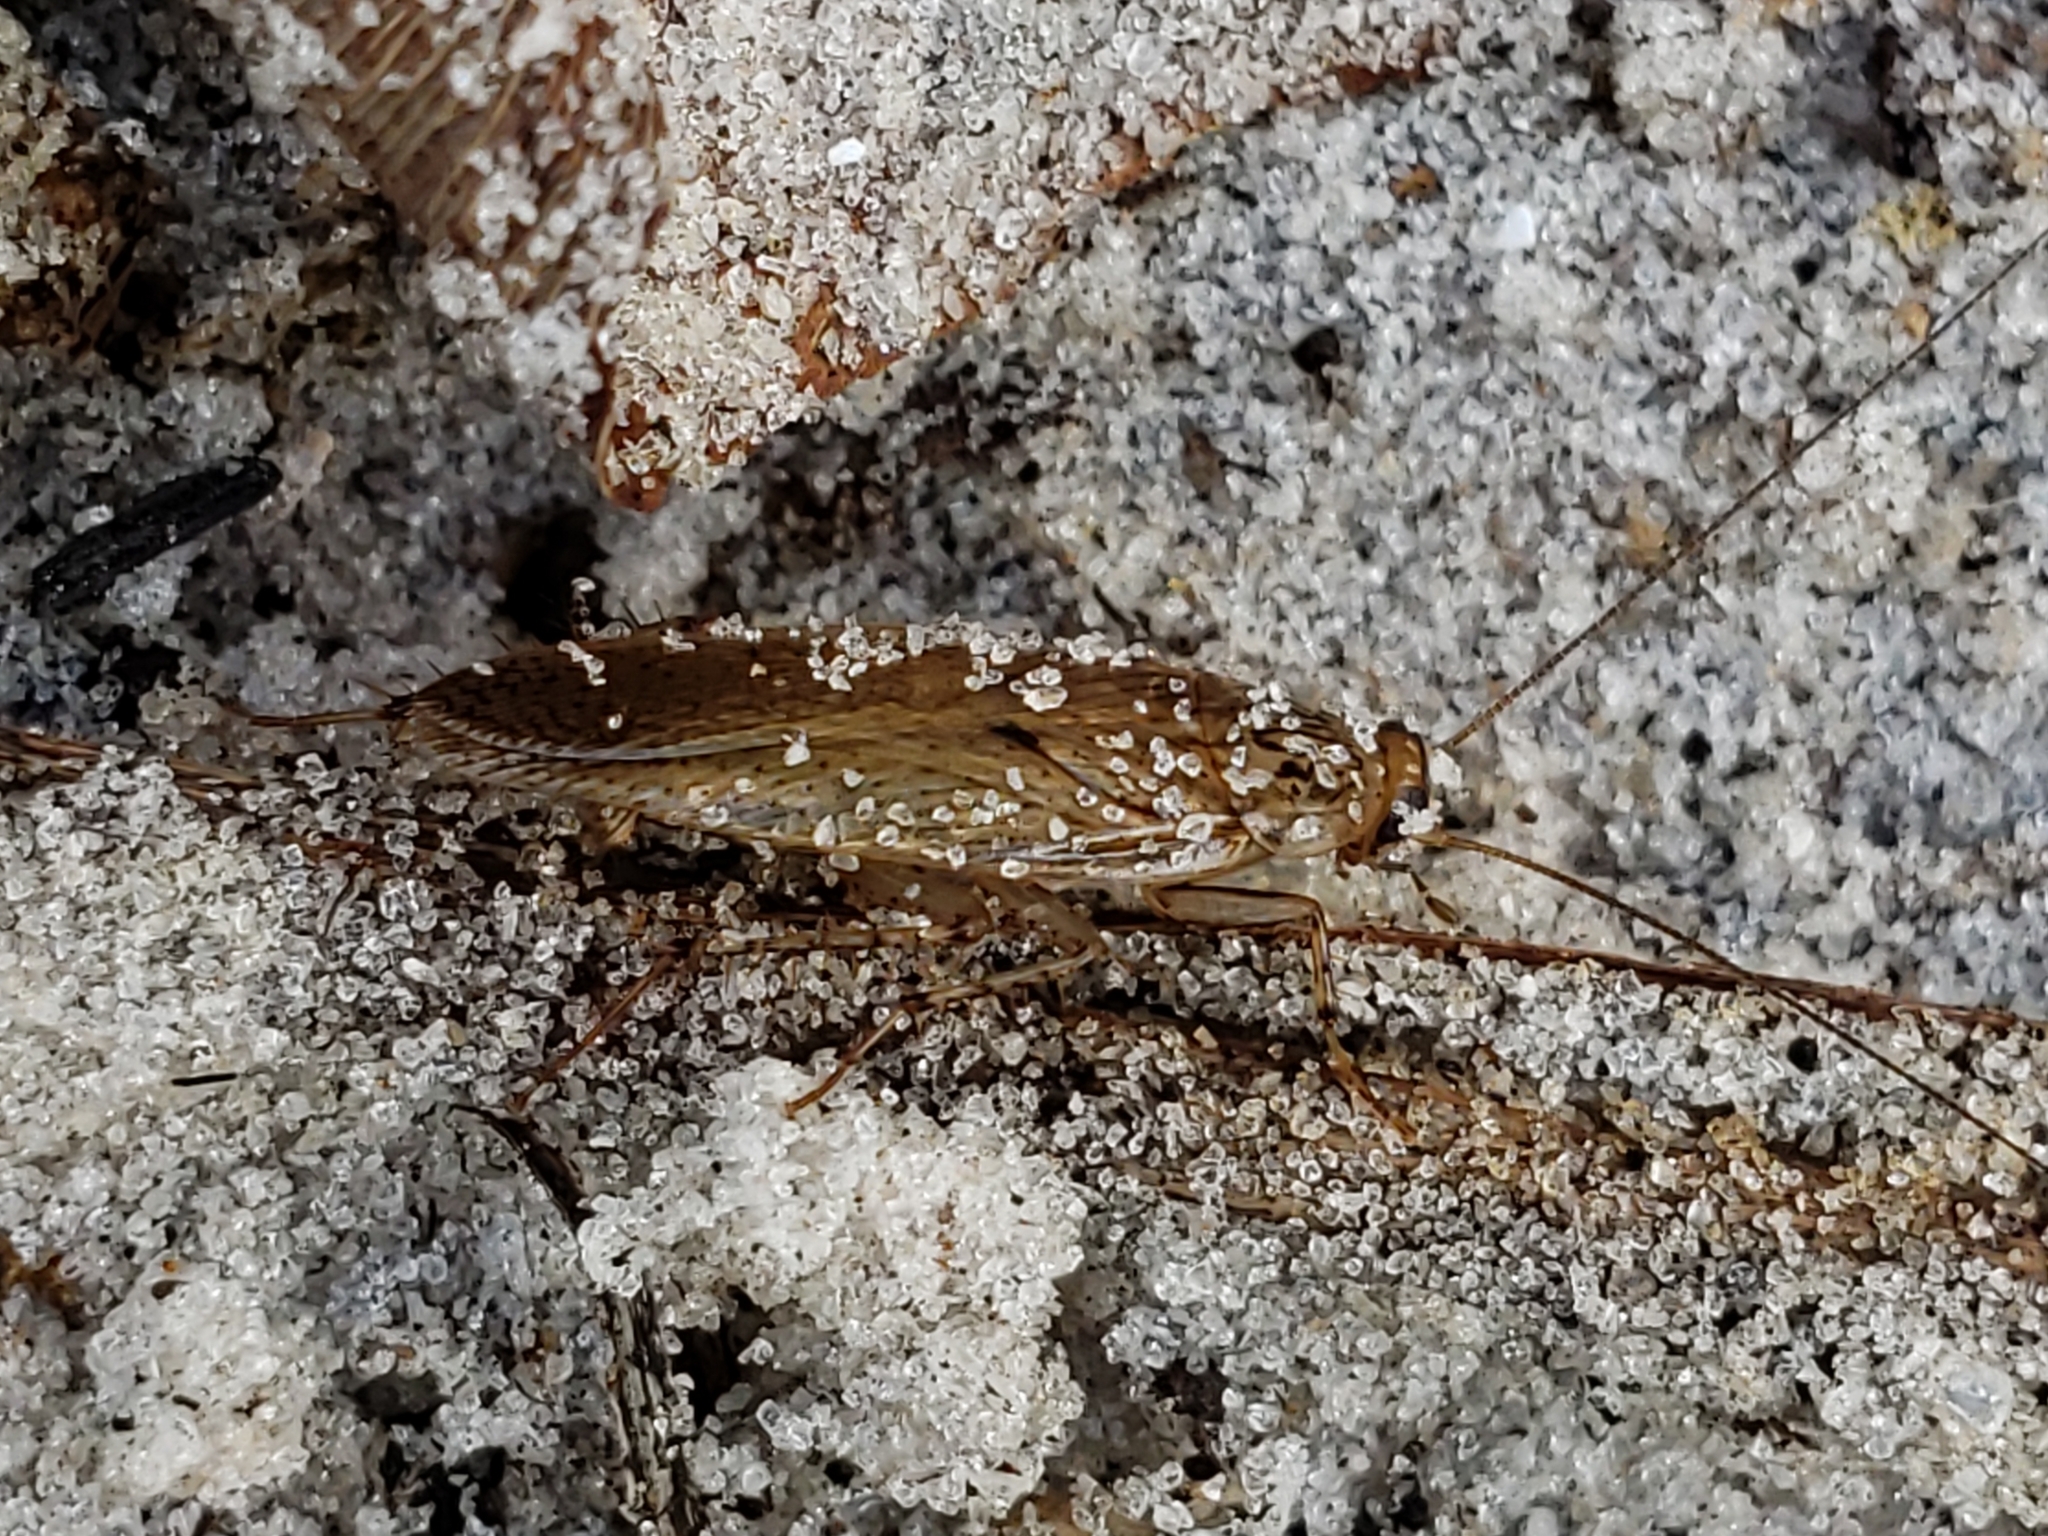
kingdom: Animalia
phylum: Arthropoda
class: Insecta
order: Blattodea
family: Ectobiidae
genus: Neoblattella
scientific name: Neoblattella detersa
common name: Wood cockroach
